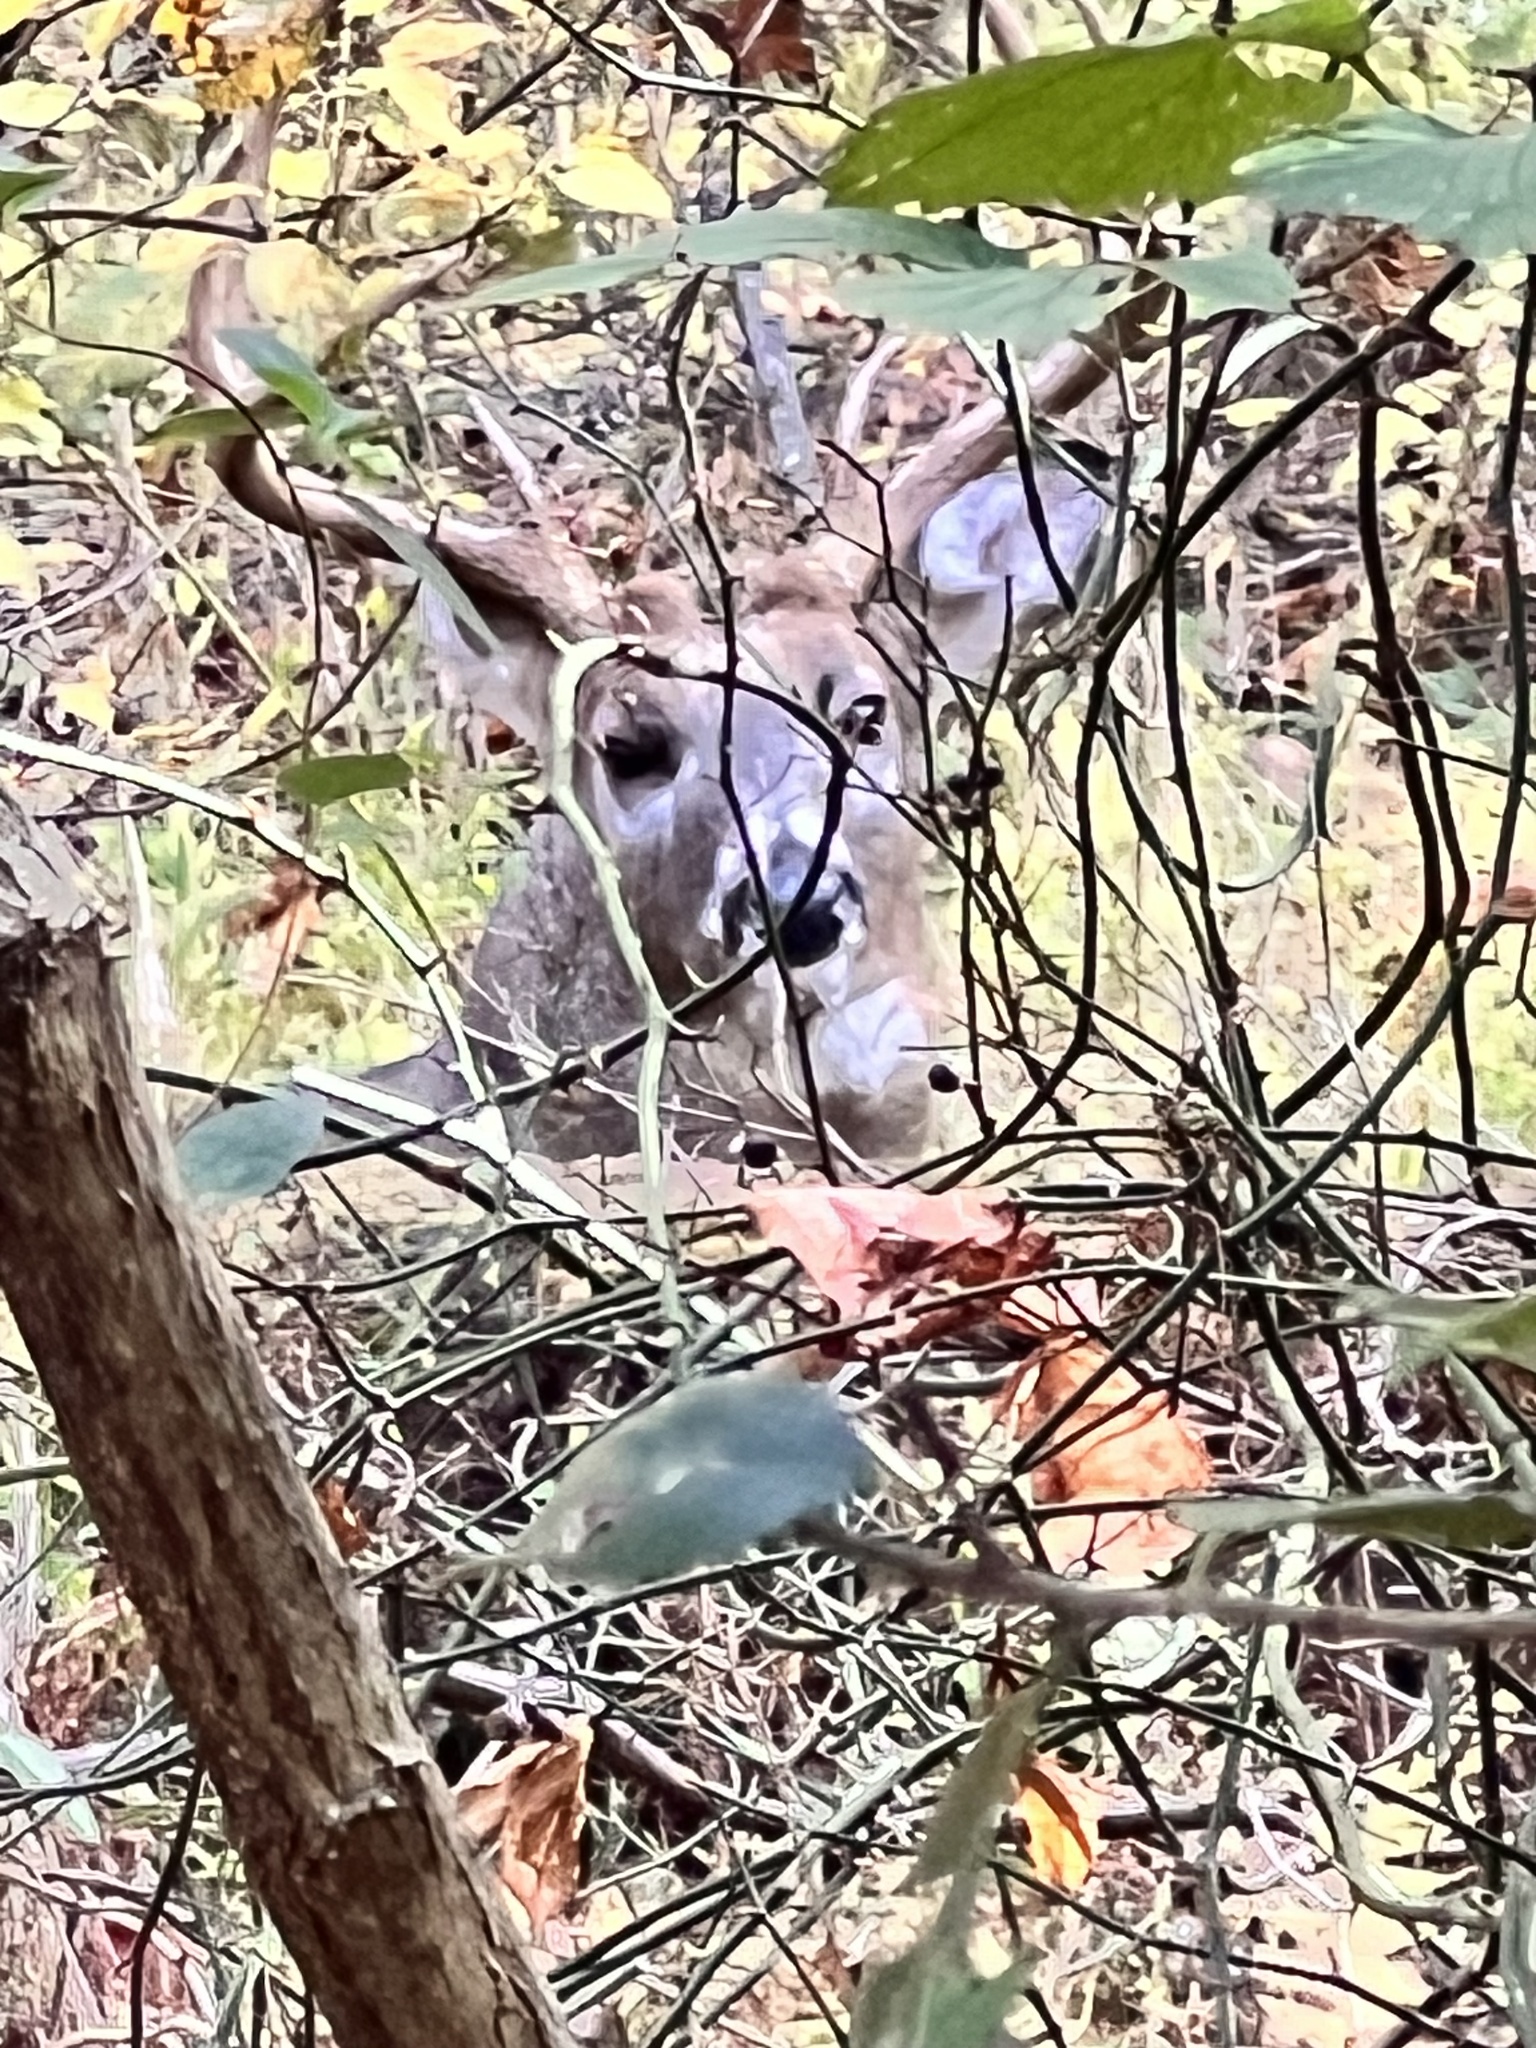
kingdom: Animalia
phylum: Chordata
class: Mammalia
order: Artiodactyla
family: Cervidae
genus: Odocoileus
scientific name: Odocoileus virginianus
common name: White-tailed deer
